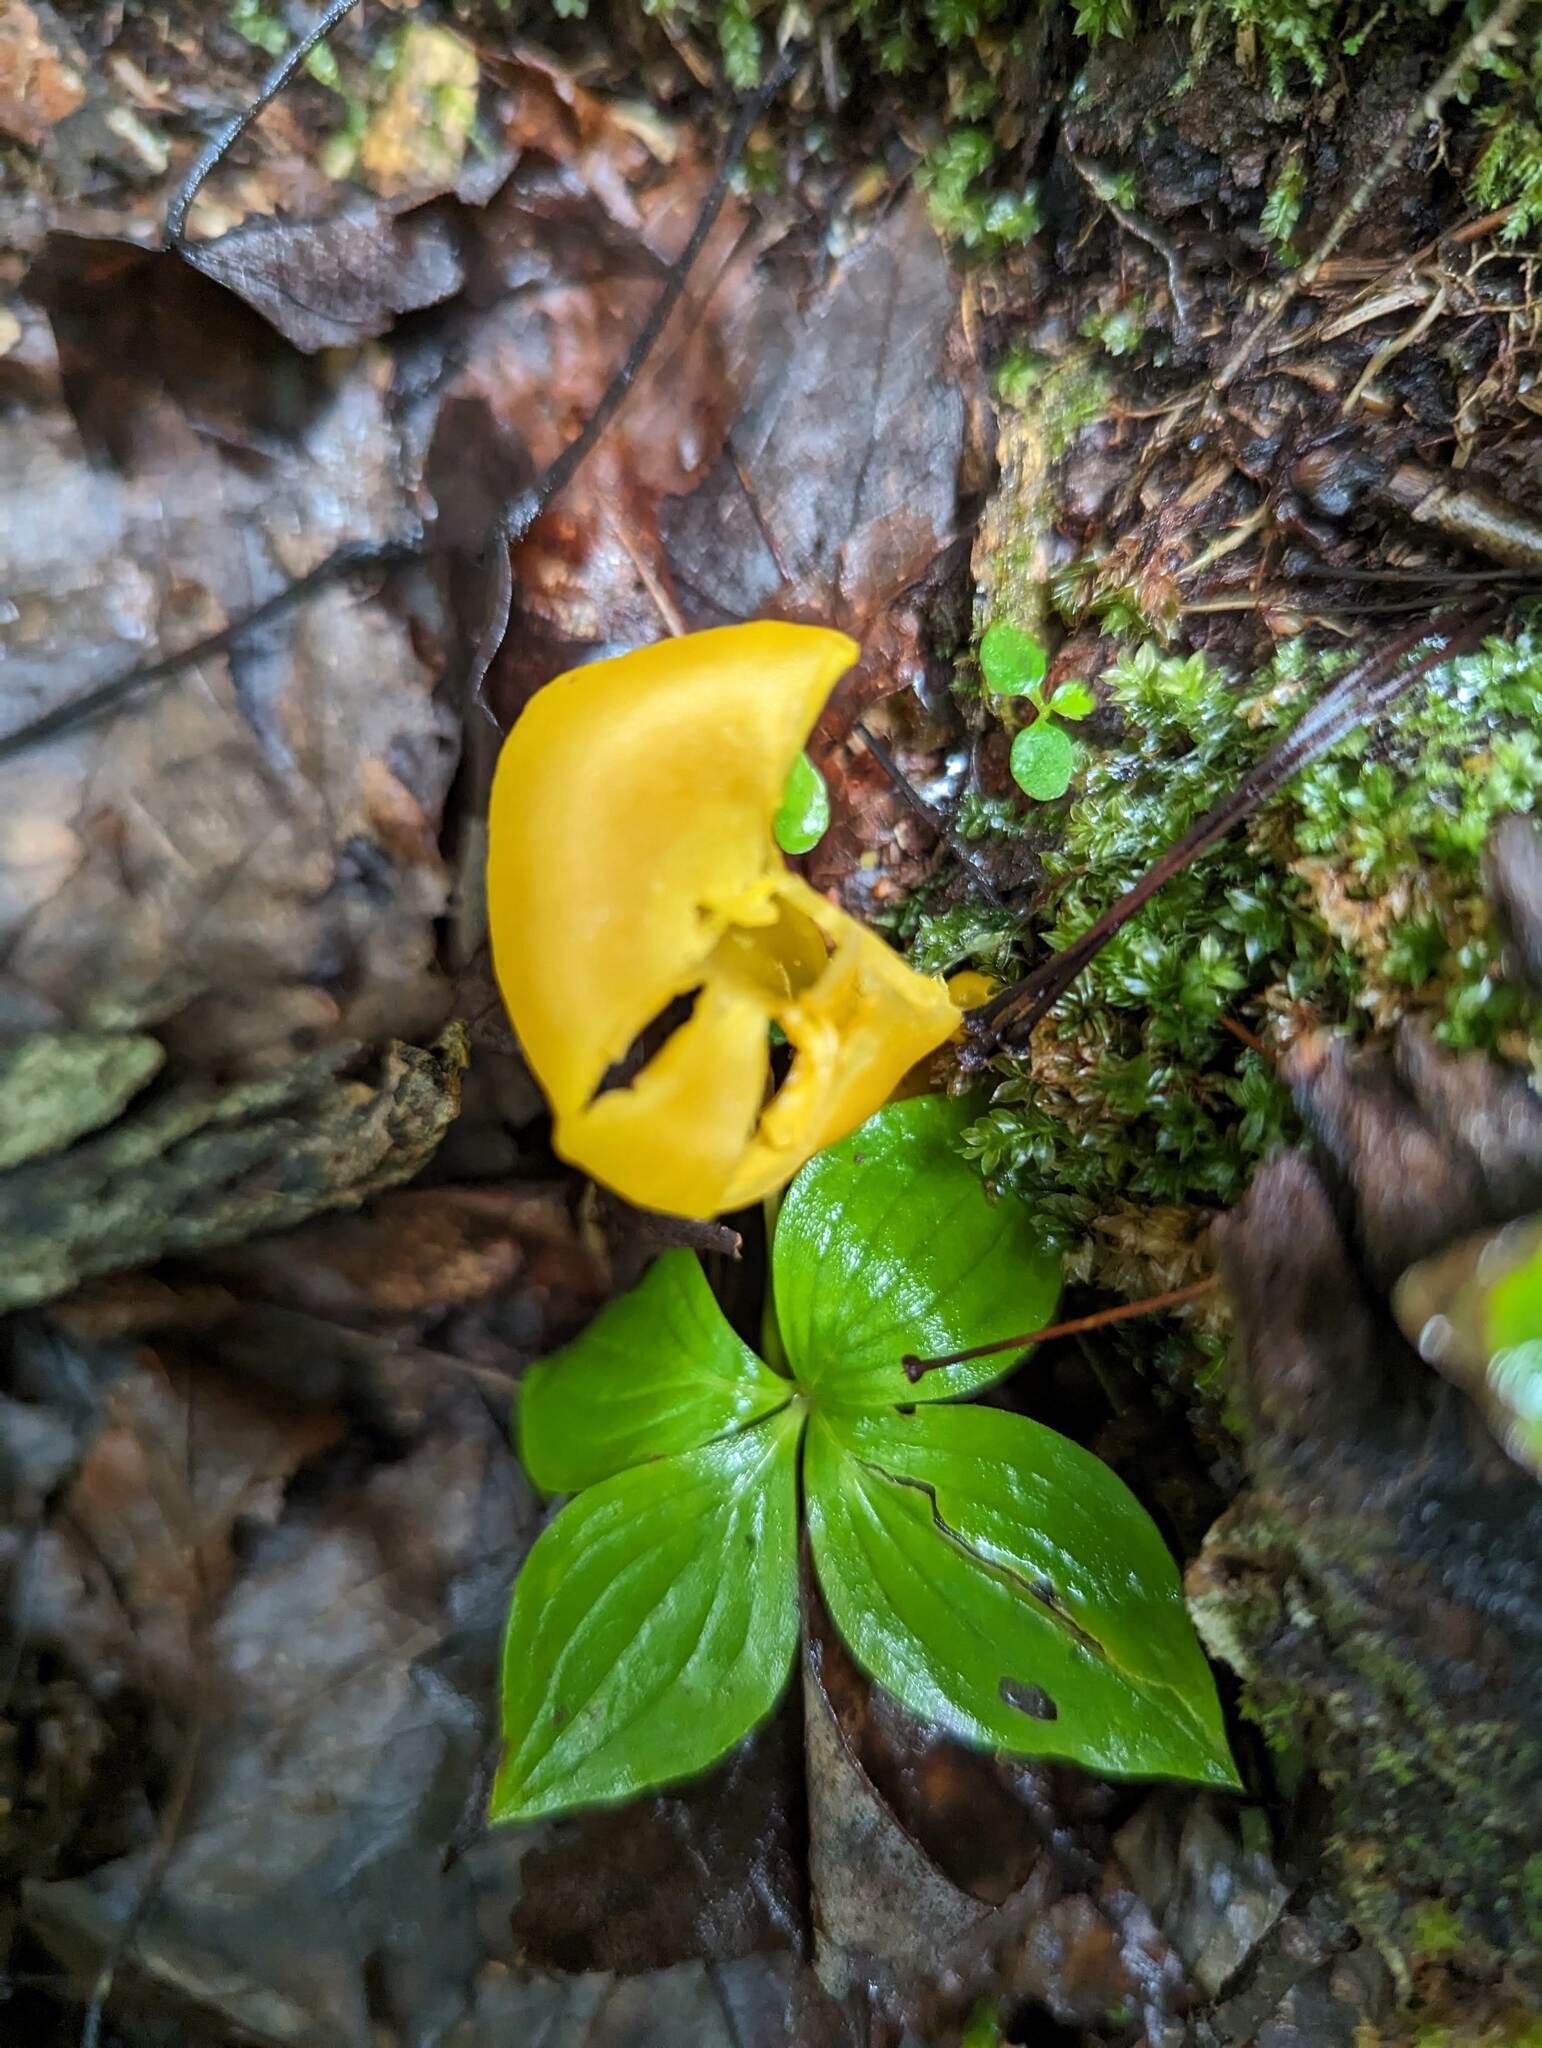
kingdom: Plantae
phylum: Tracheophyta
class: Magnoliopsida
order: Cornales
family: Cornaceae
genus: Cornus
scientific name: Cornus canadensis
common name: Creeping dogwood
